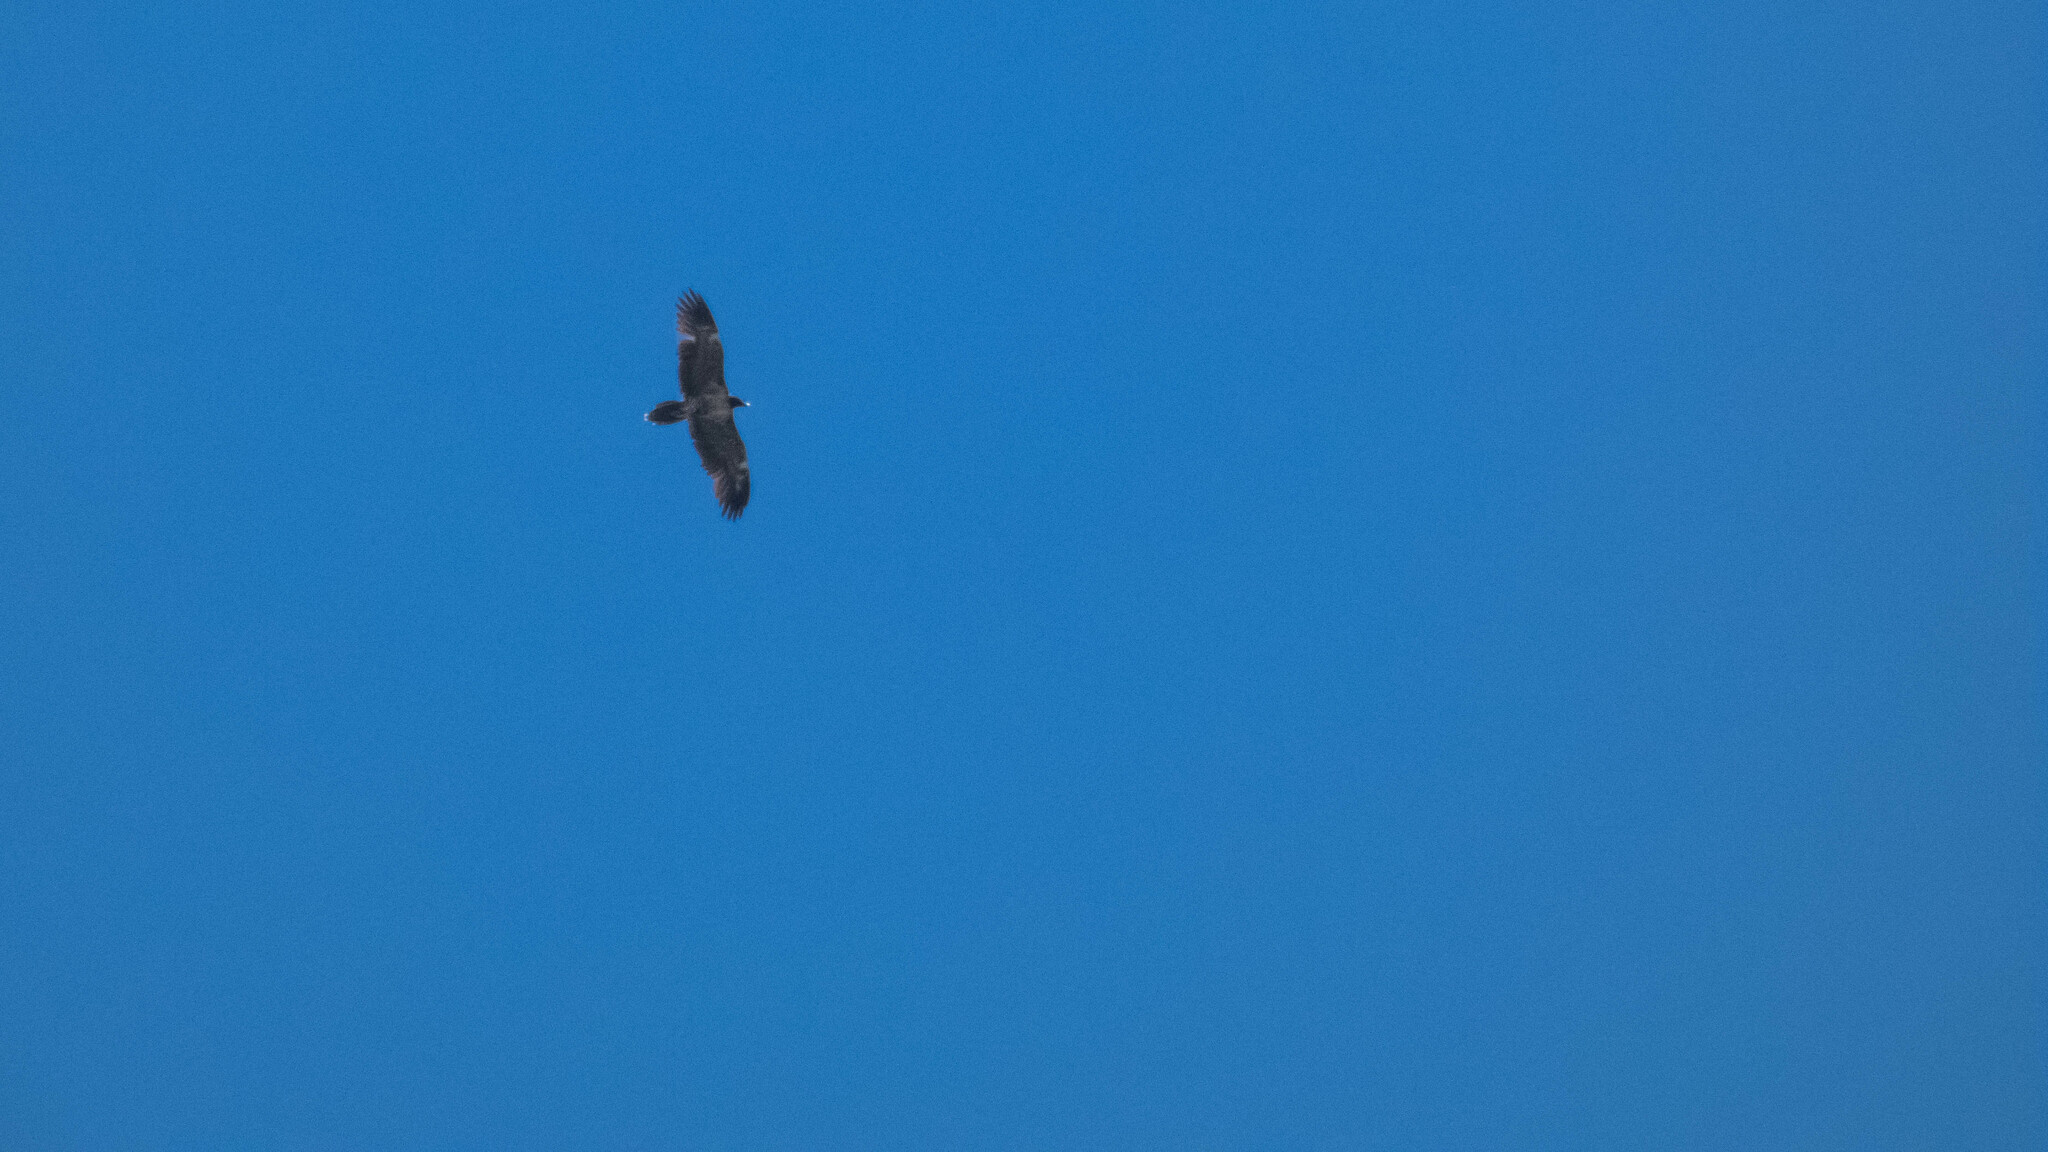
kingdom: Animalia
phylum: Chordata
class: Aves
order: Accipitriformes
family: Accipitridae
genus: Gypaetus
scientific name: Gypaetus barbatus
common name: Bearded vulture
